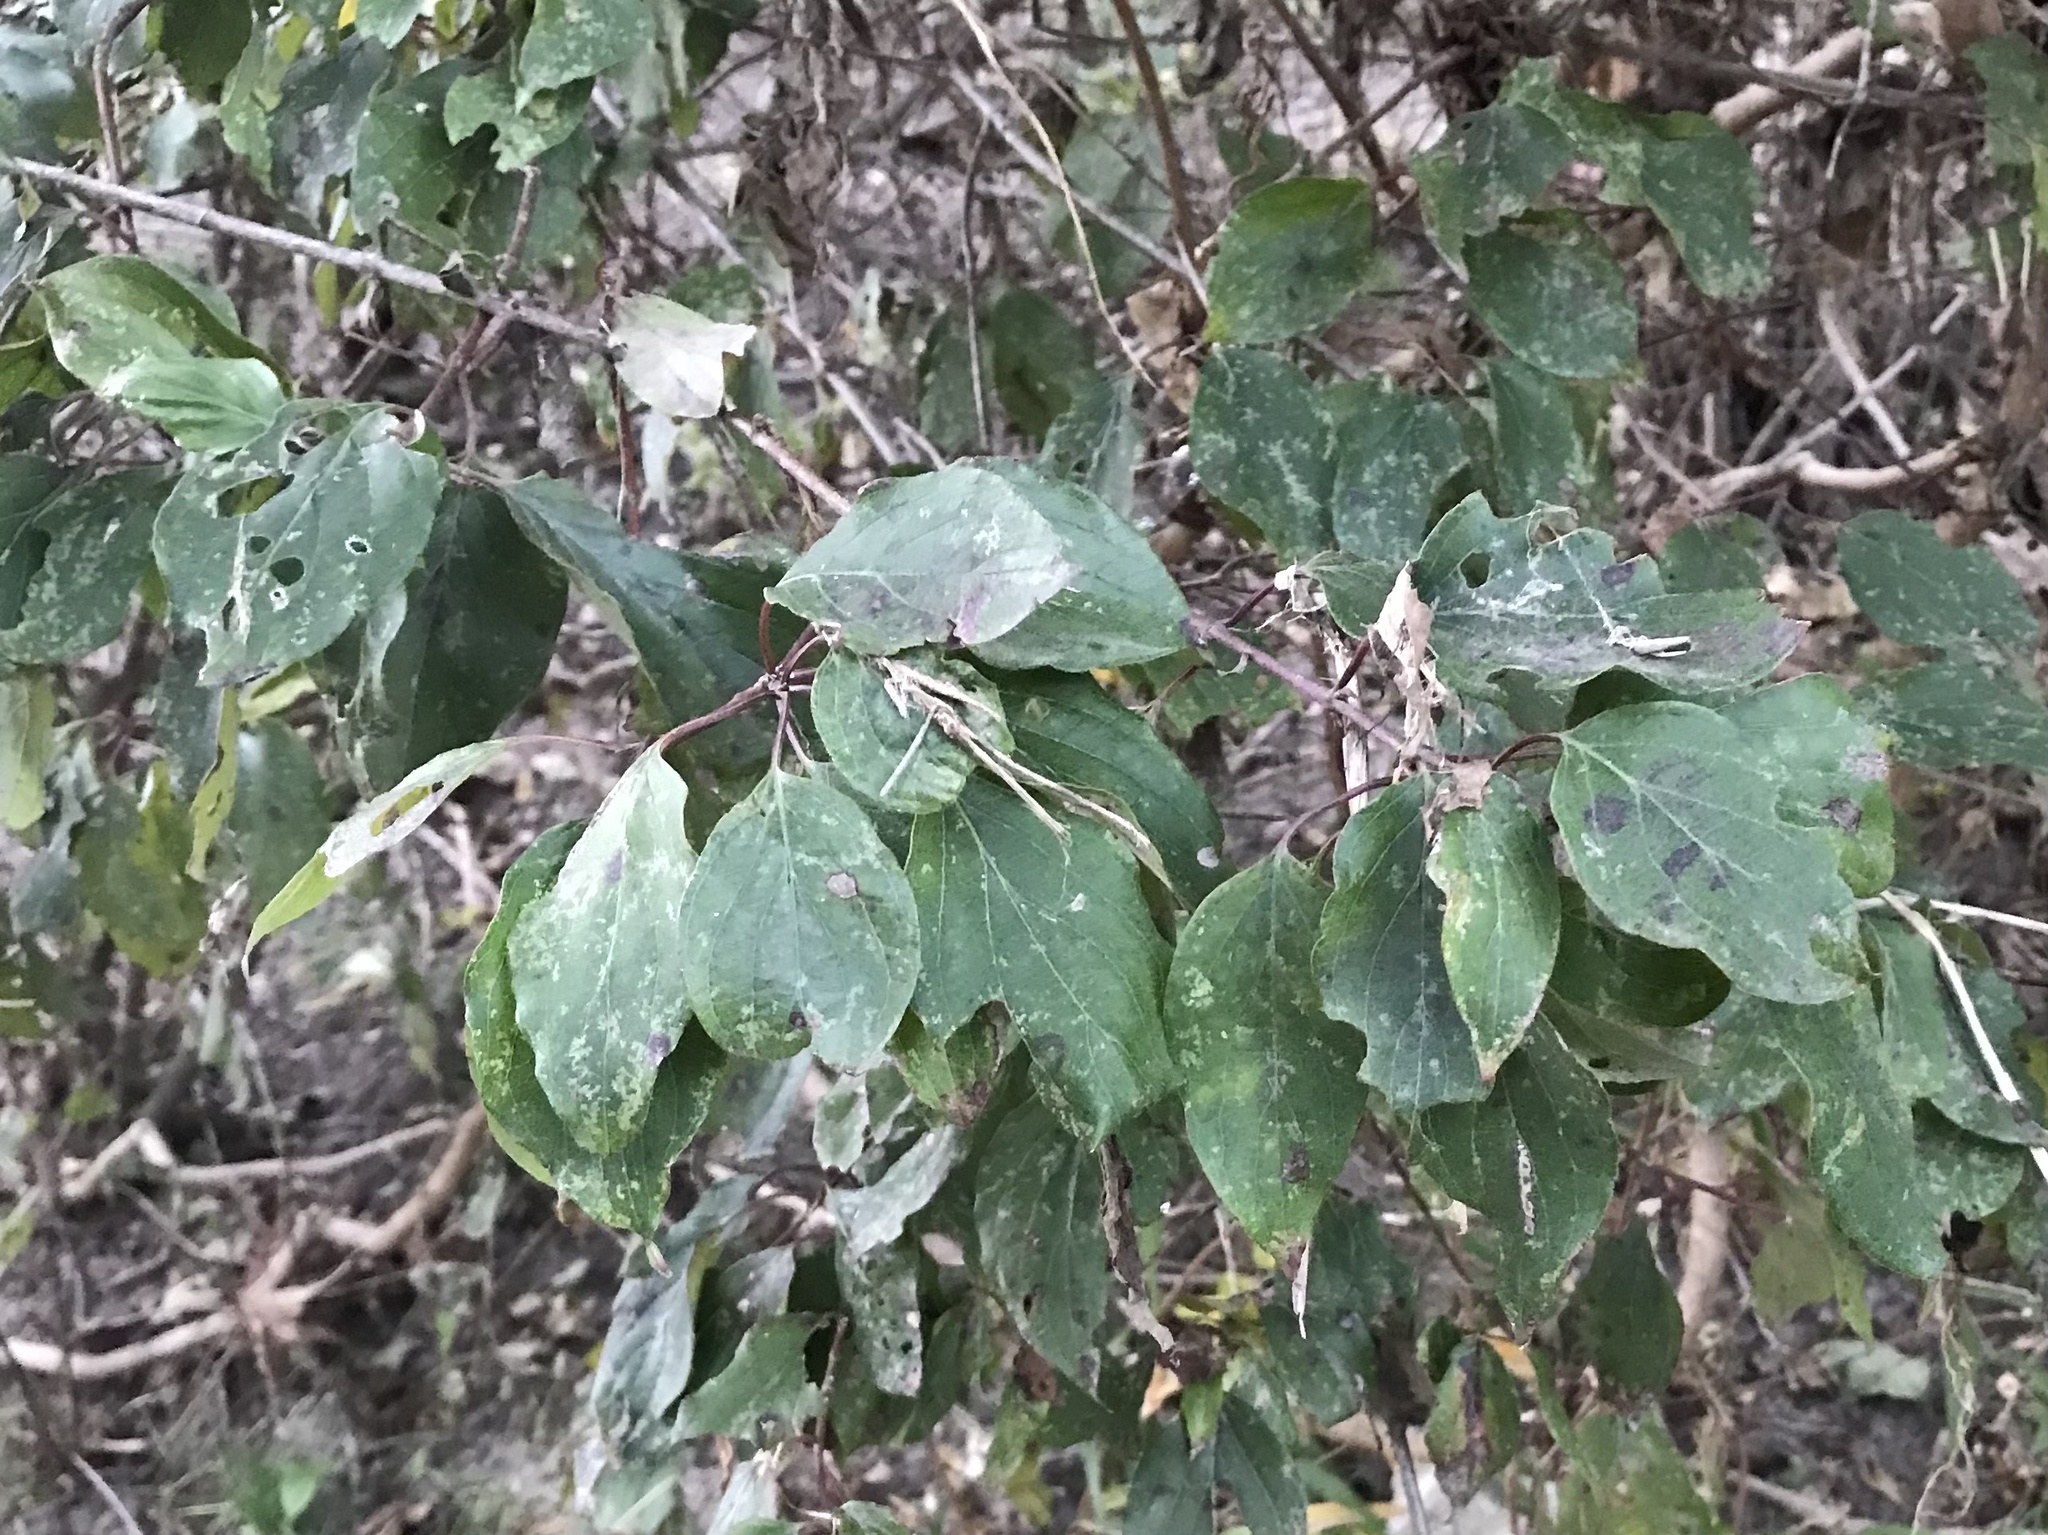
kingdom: Plantae
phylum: Tracheophyta
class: Magnoliopsida
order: Cornales
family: Cornaceae
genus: Cornus
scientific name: Cornus drummondii
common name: Rough-leaf dogwood
